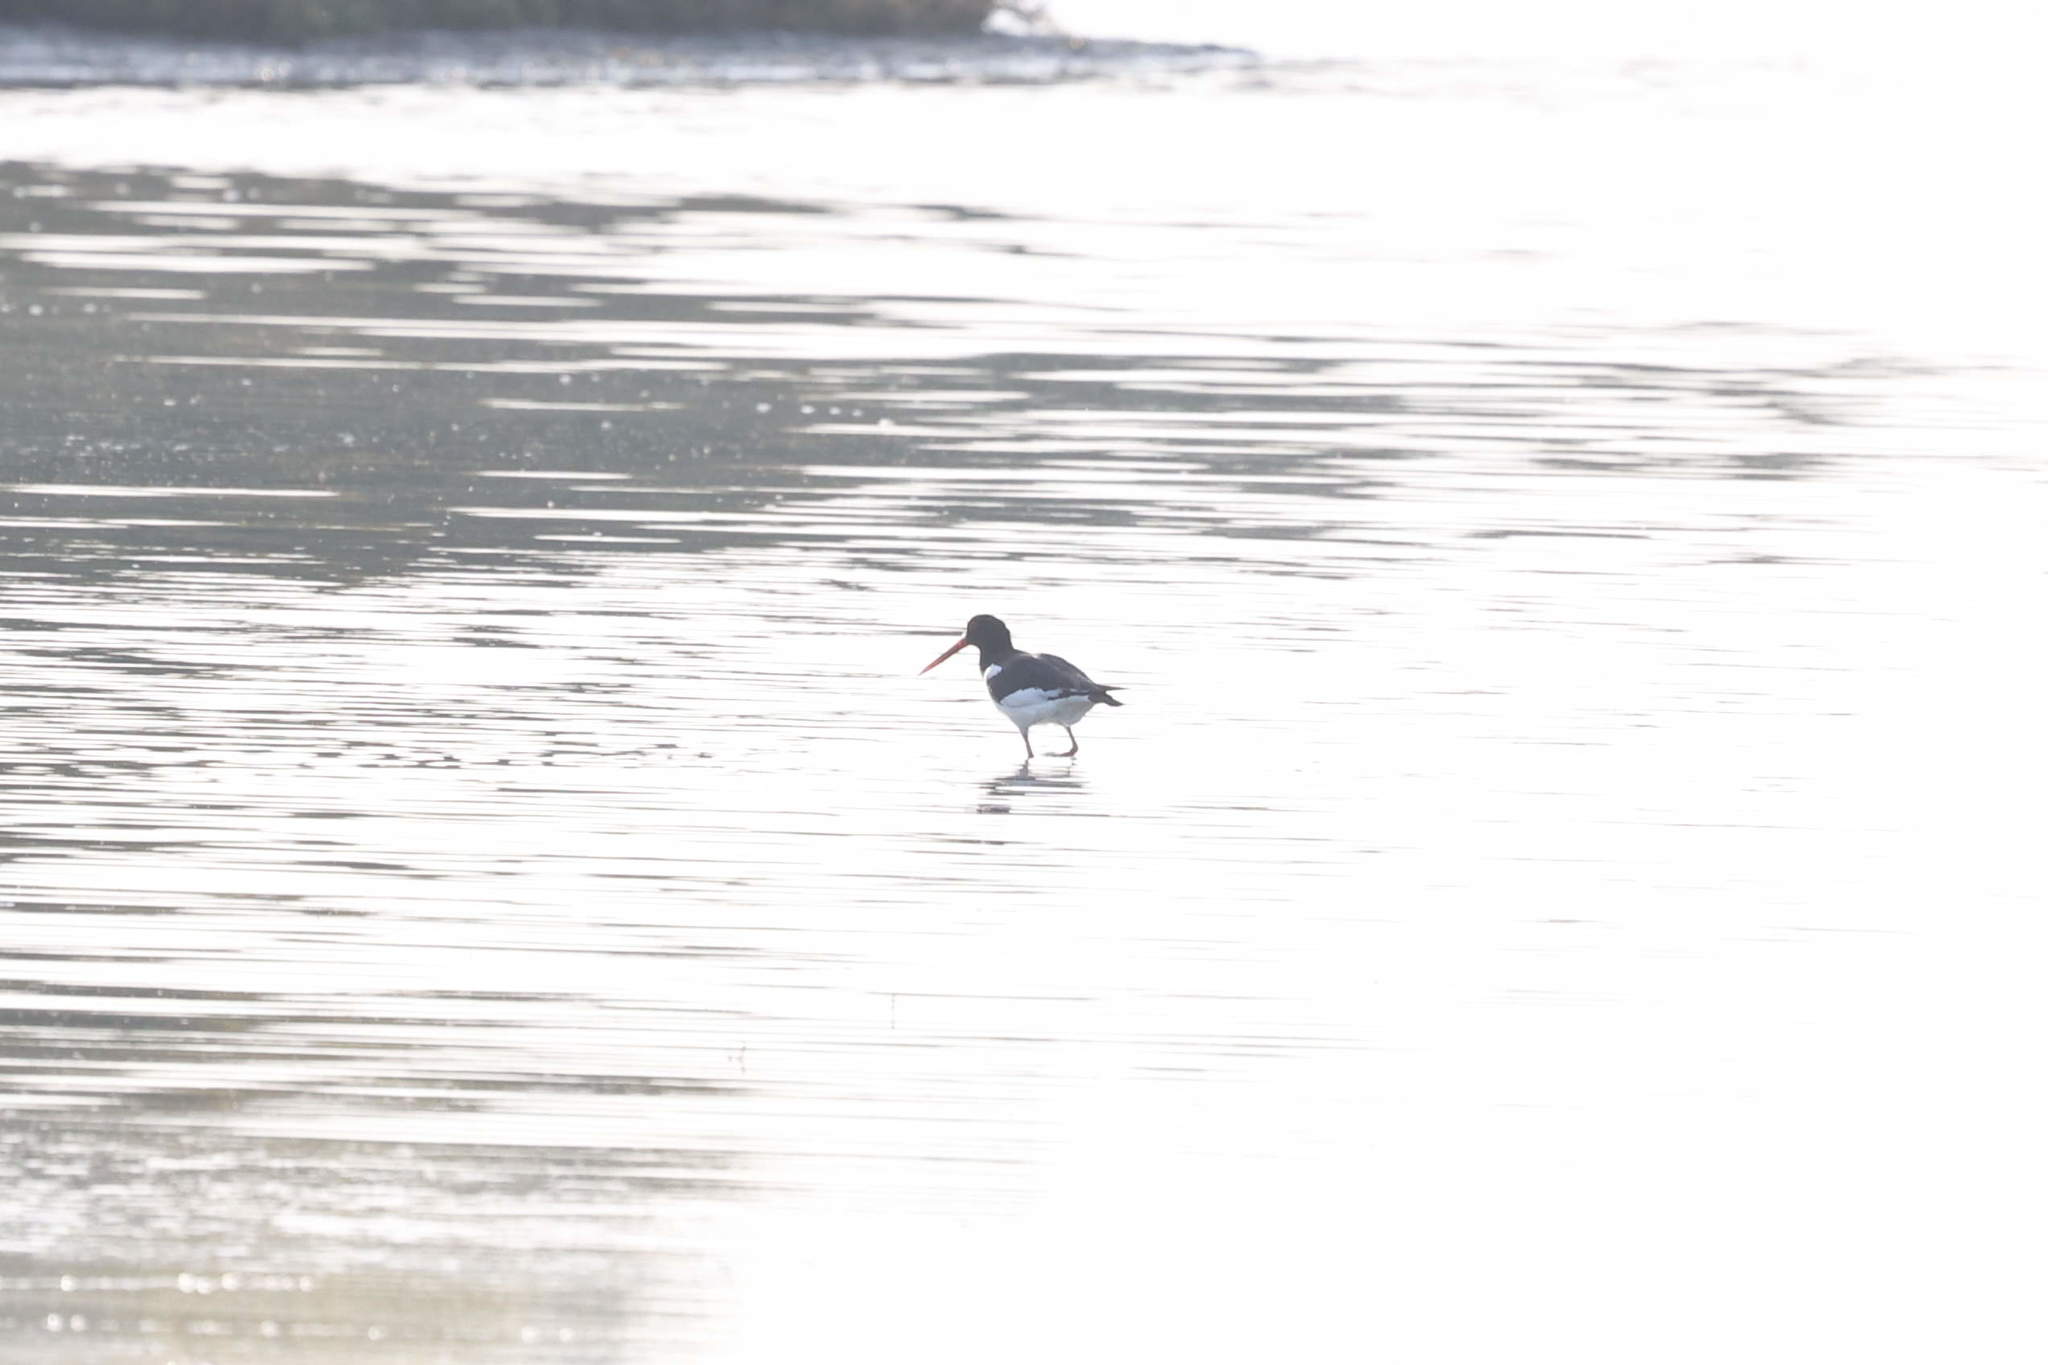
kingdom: Animalia
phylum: Chordata
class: Aves
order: Charadriiformes
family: Haematopodidae
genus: Haematopus
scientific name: Haematopus ostralegus
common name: Eurasian oystercatcher
